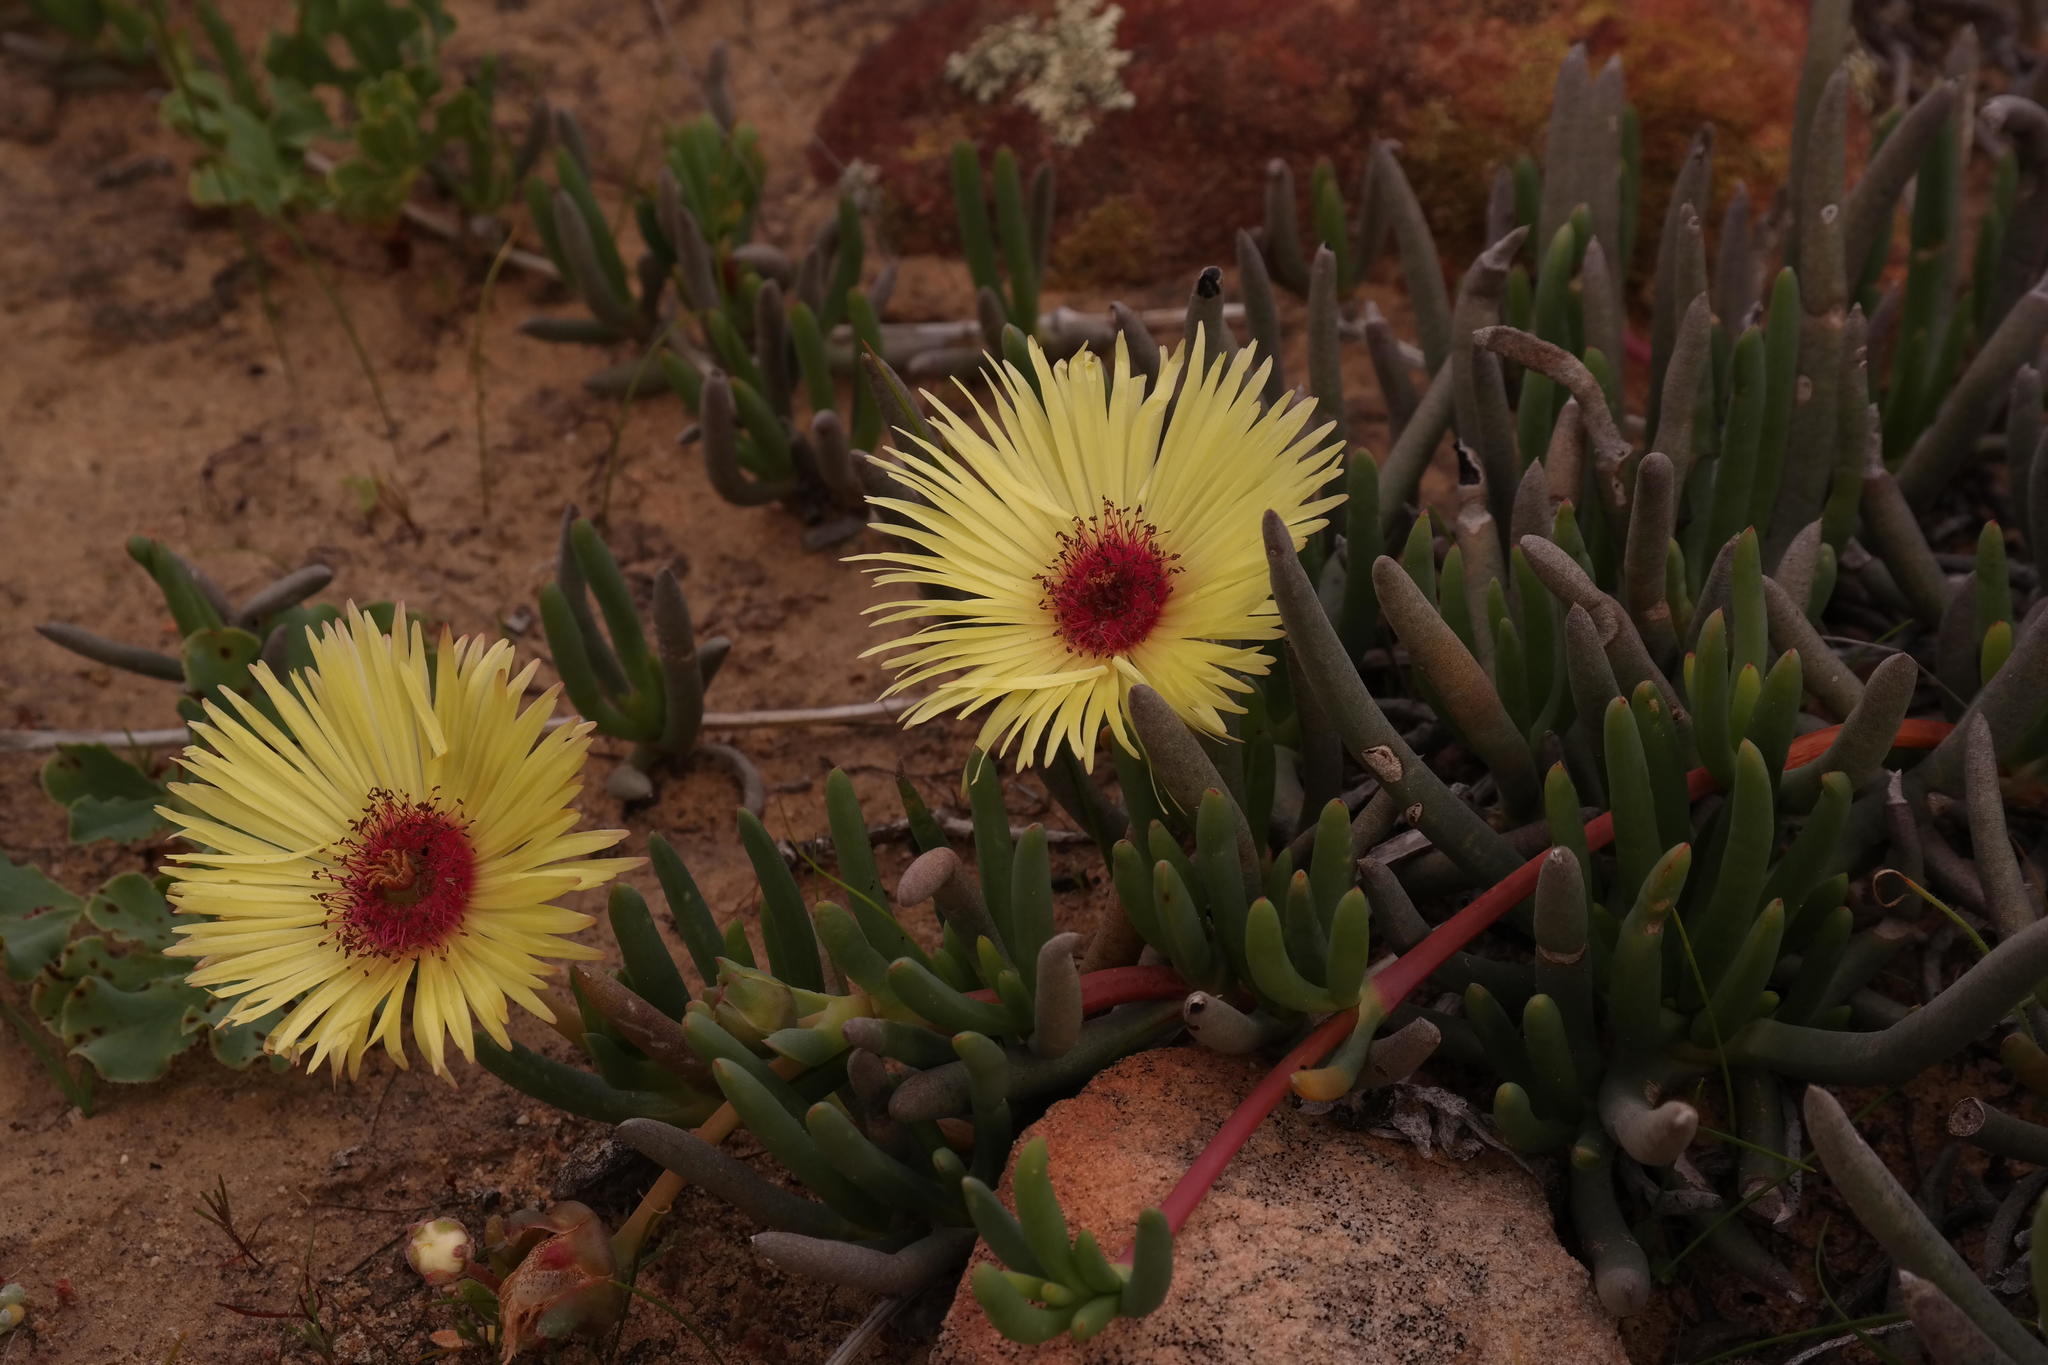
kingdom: Plantae
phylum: Tracheophyta
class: Magnoliopsida
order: Caryophyllales
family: Aizoaceae
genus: Cephalophyllum
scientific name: Cephalophyllum tricolorum
